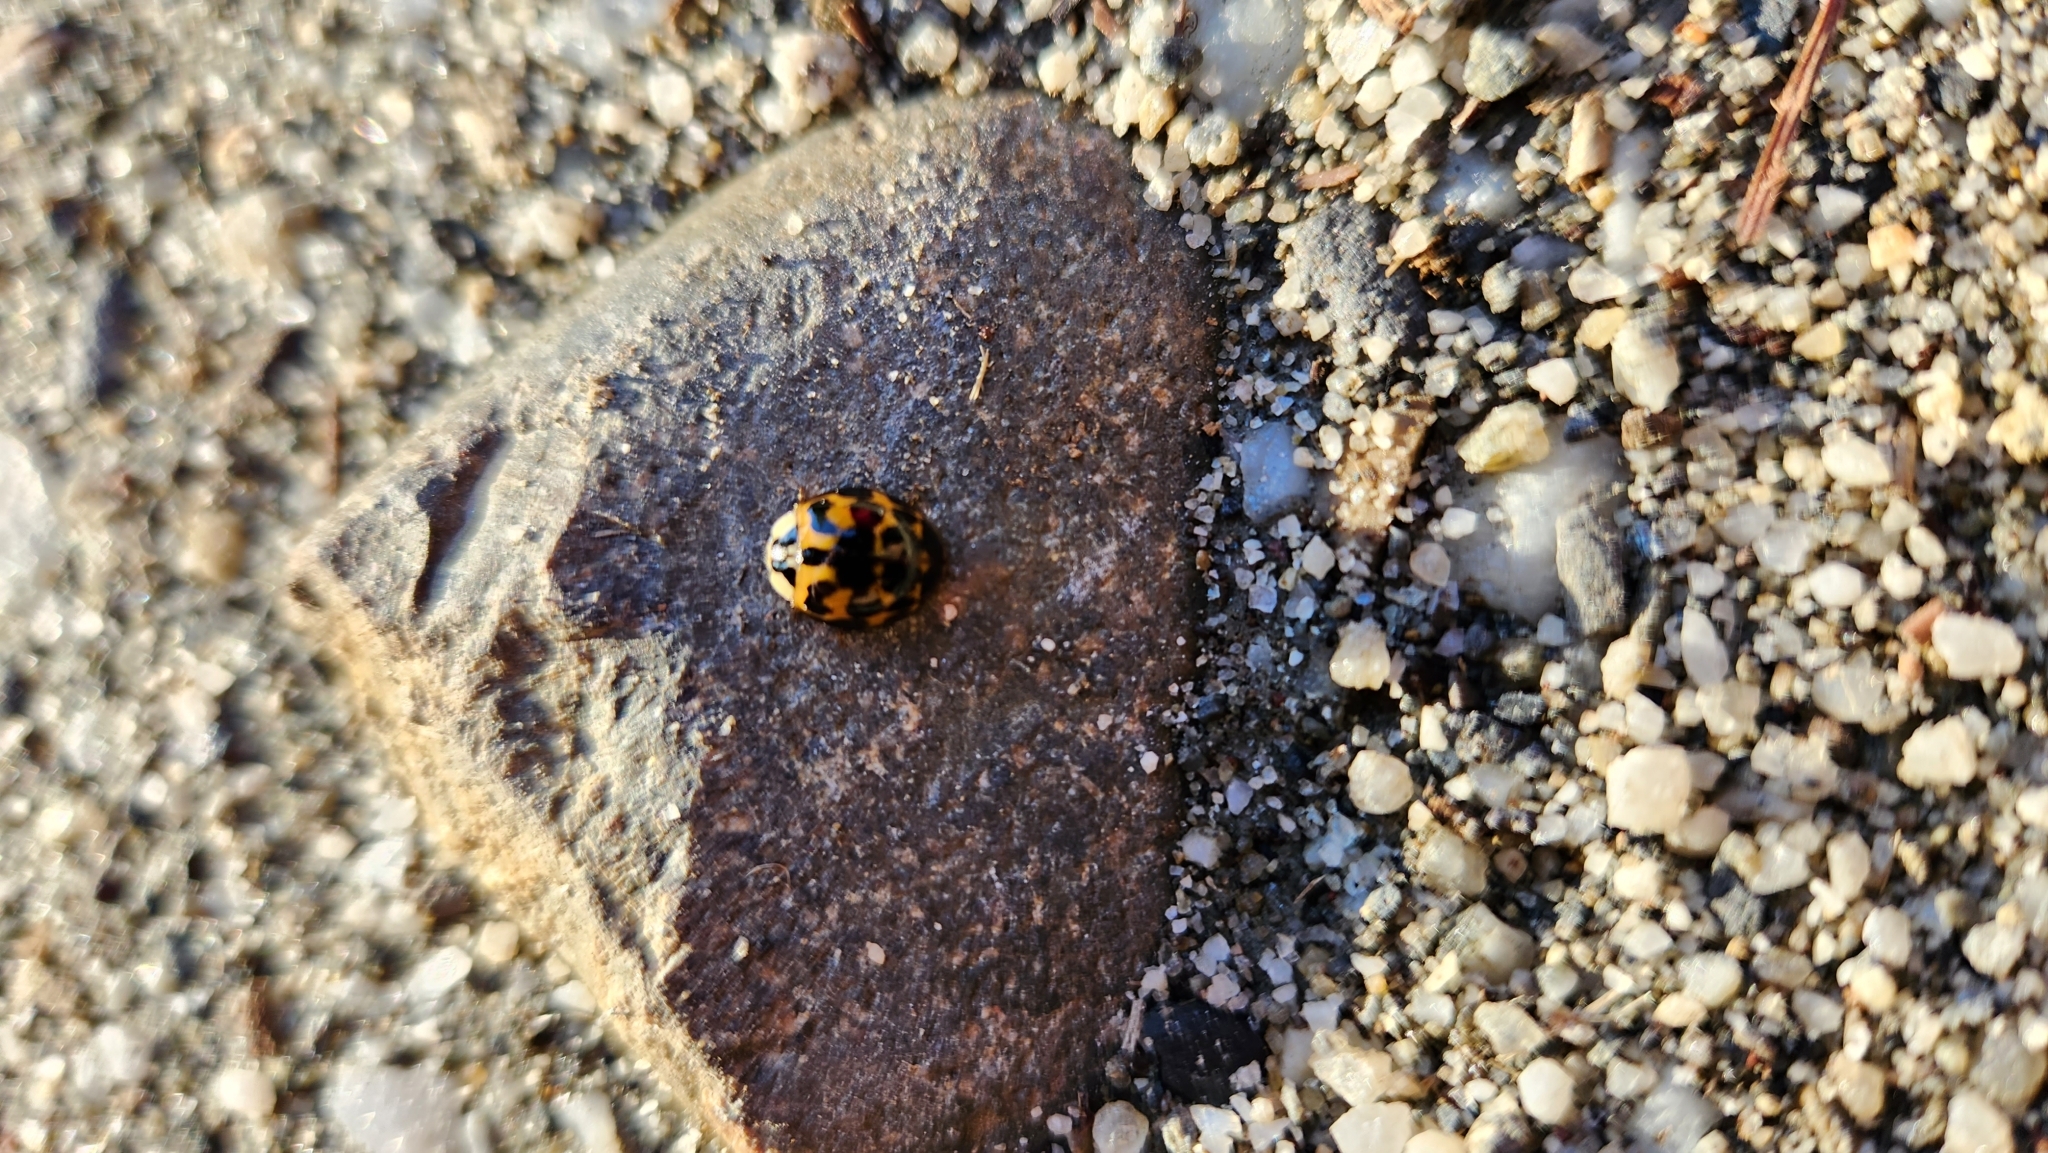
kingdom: Animalia
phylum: Arthropoda
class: Insecta
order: Coleoptera
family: Coccinellidae
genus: Harmonia
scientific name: Harmonia axyridis
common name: Harlequin ladybird
